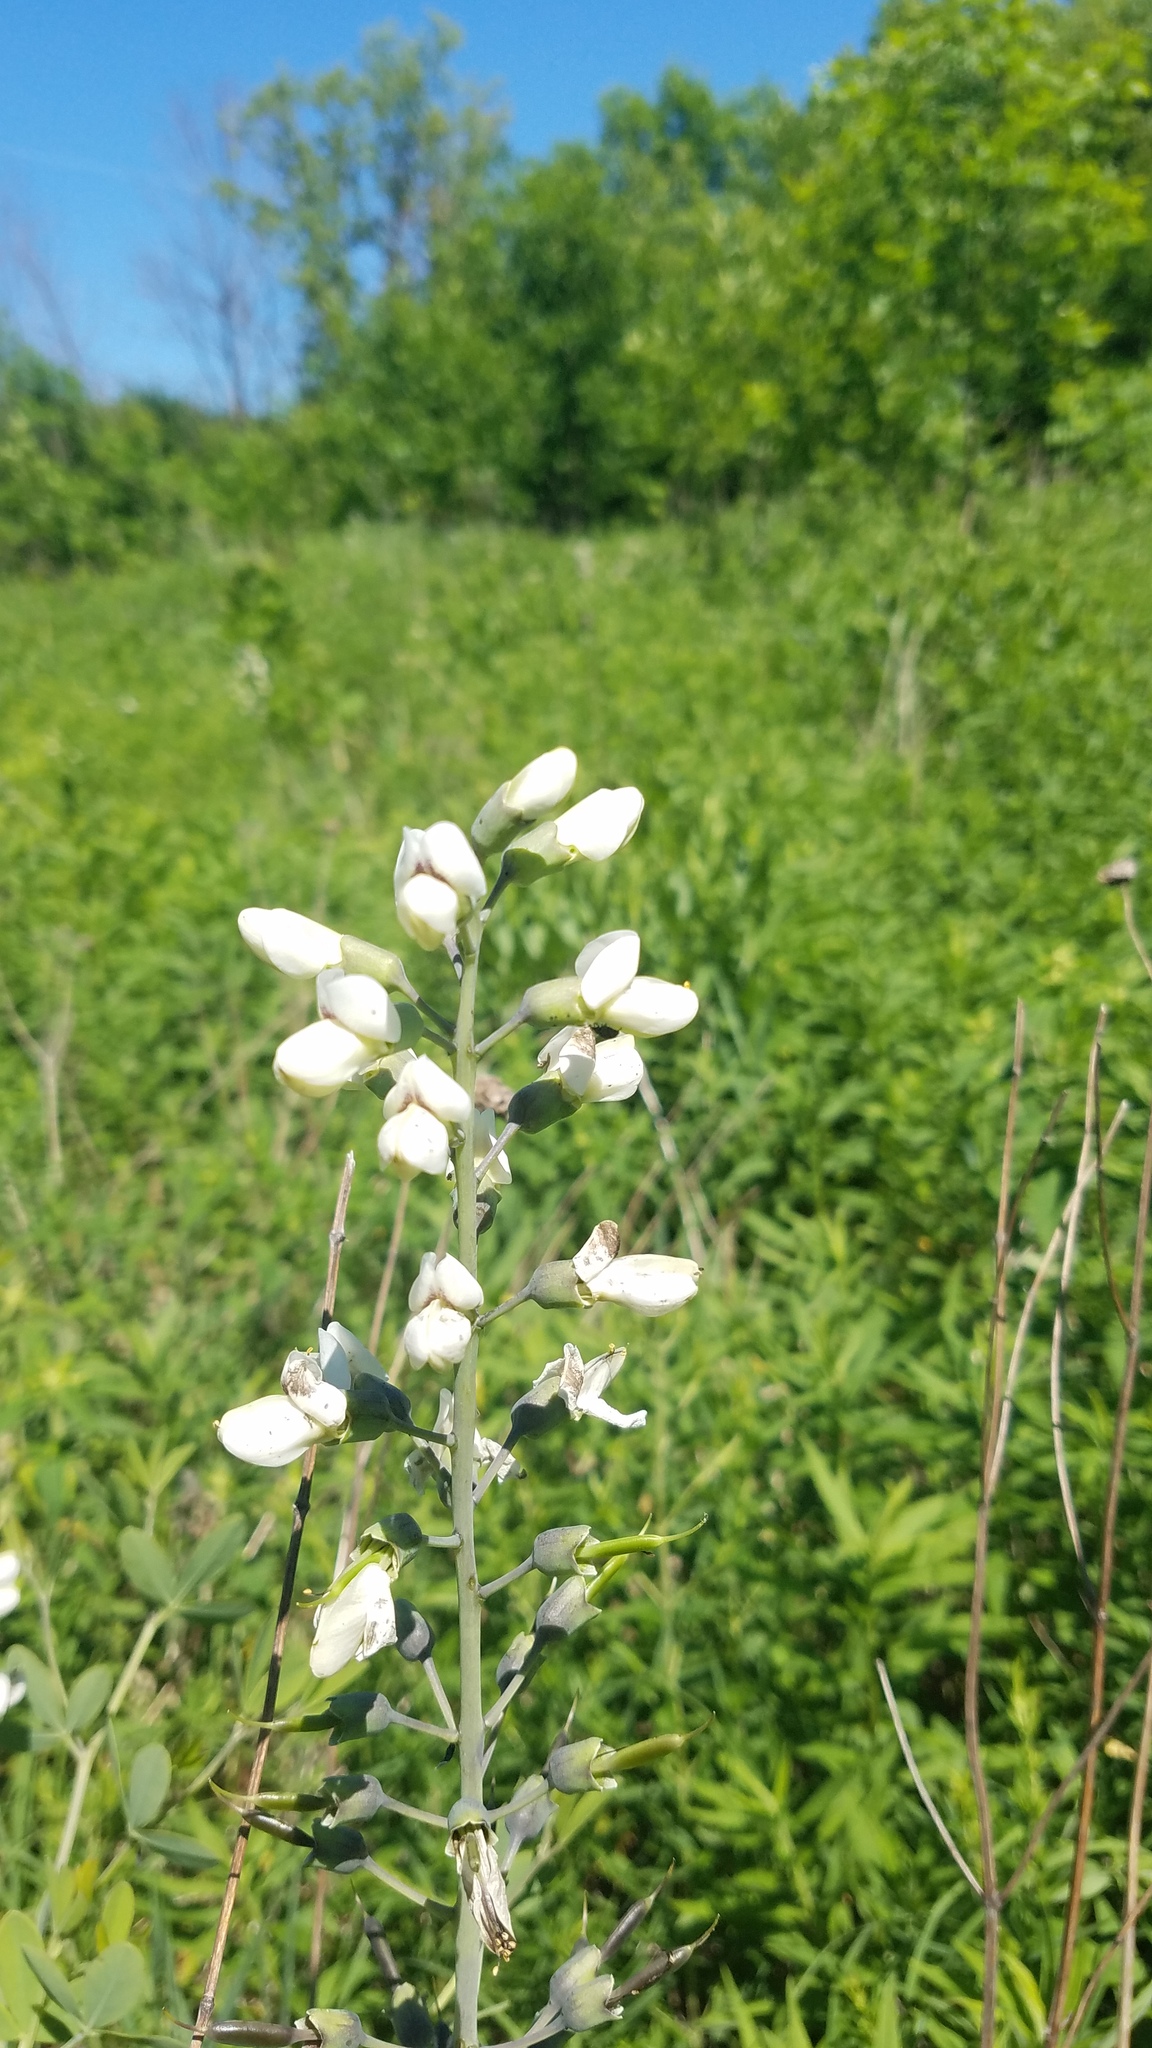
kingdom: Plantae
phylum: Tracheophyta
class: Magnoliopsida
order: Fabales
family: Fabaceae
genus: Baptisia
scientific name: Baptisia alba
